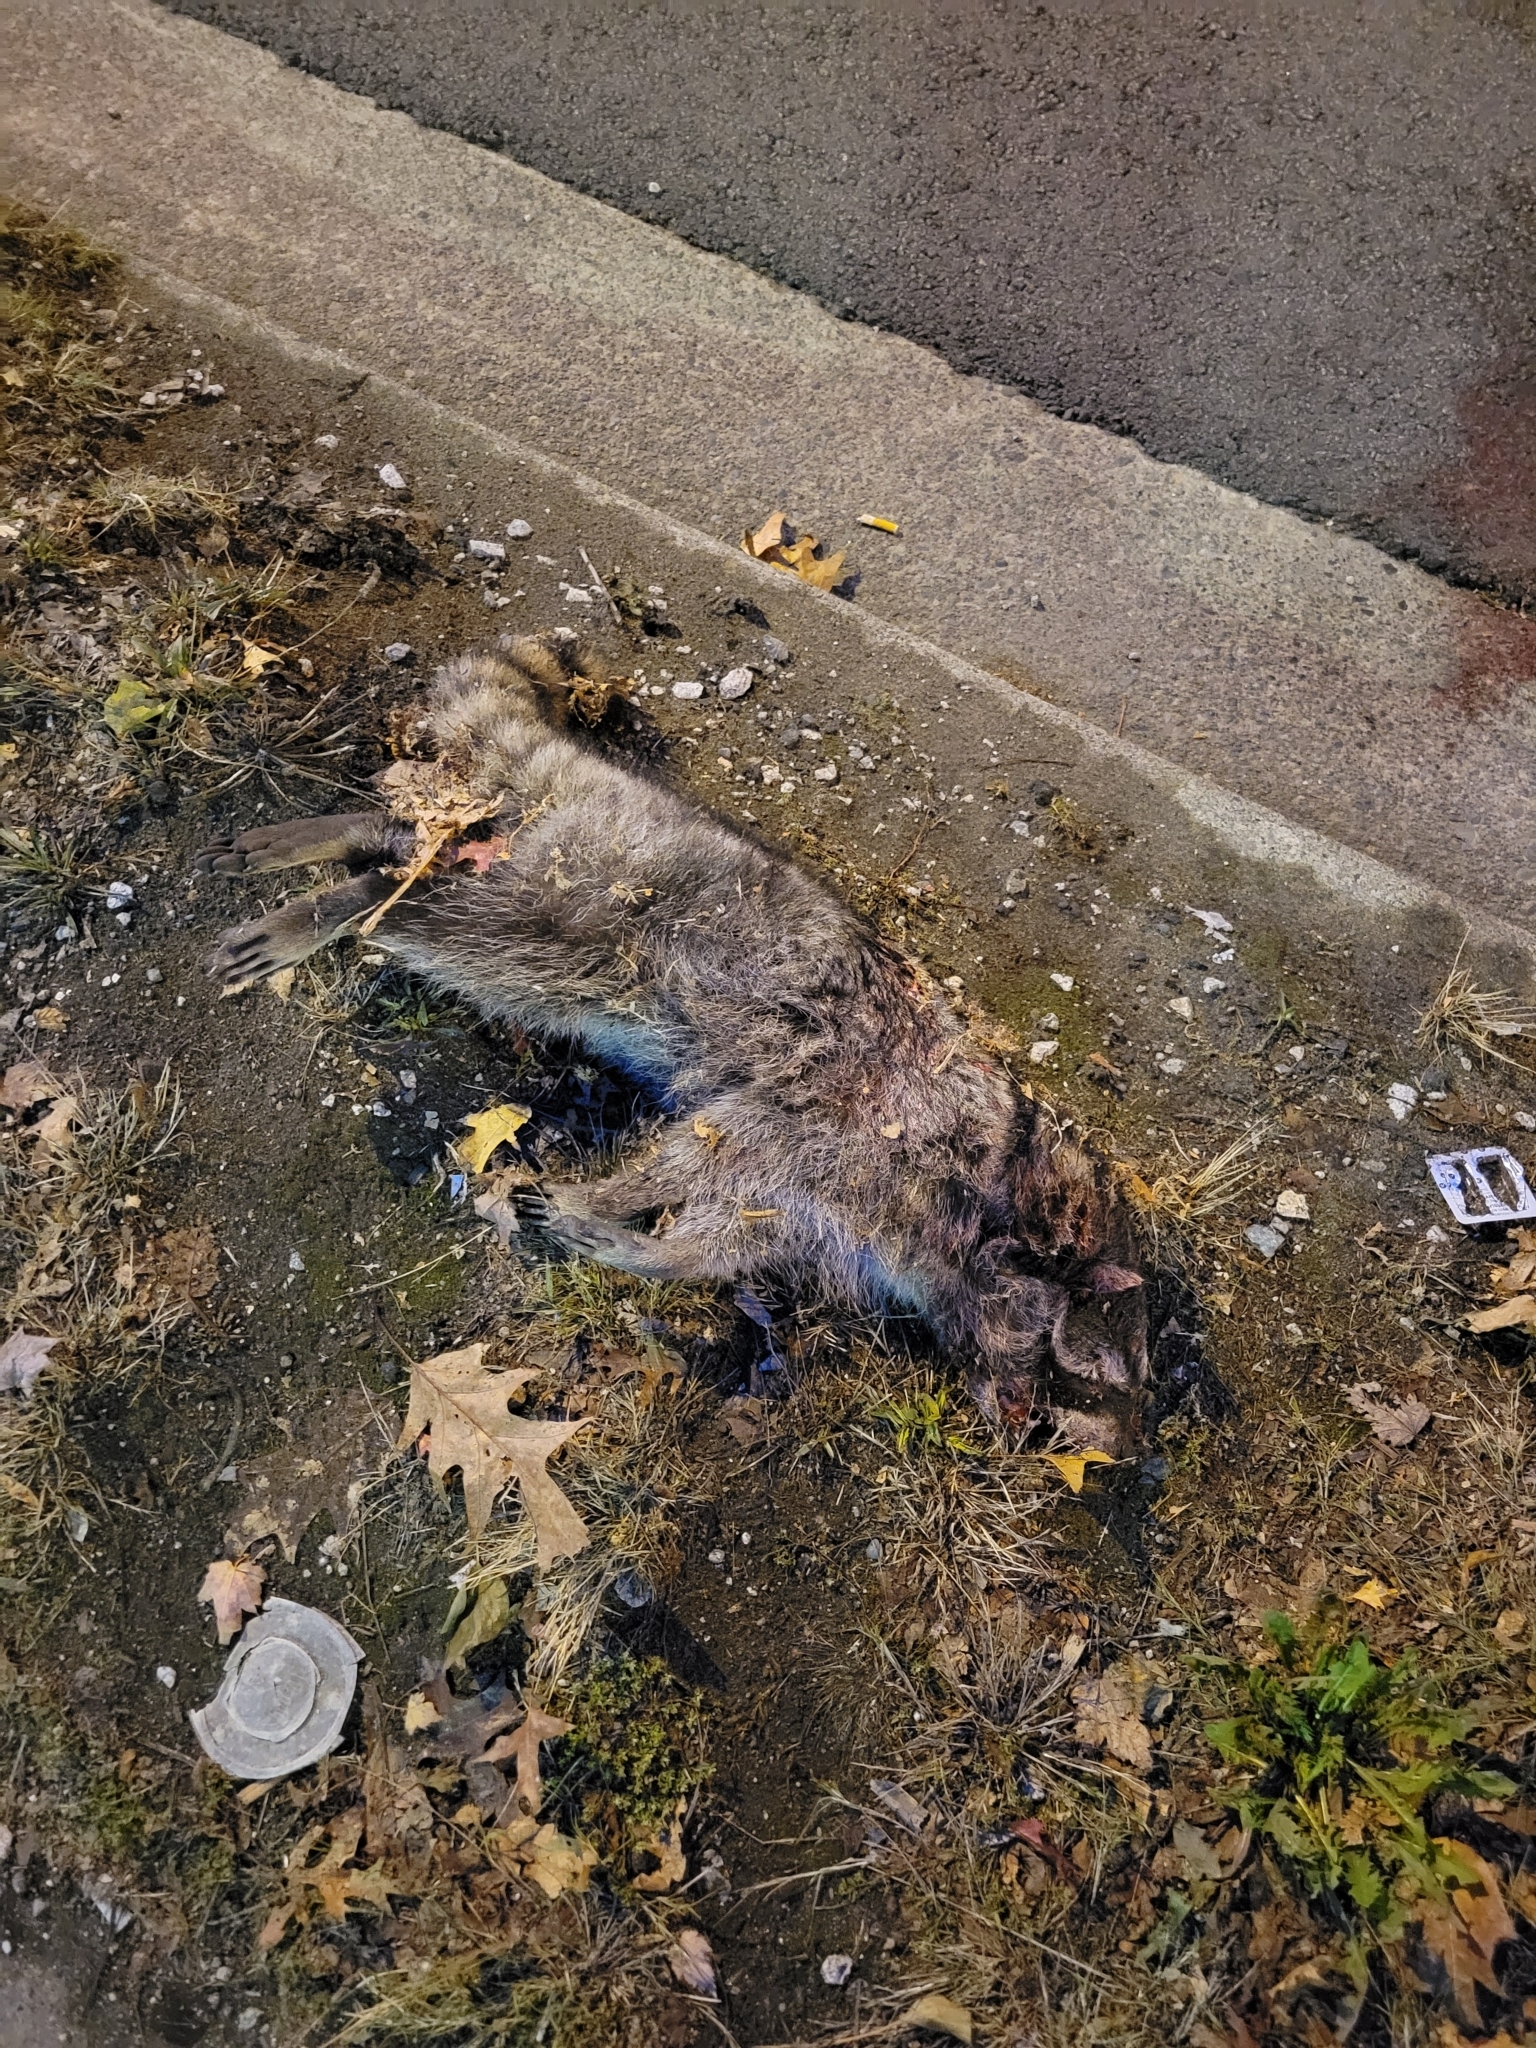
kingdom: Animalia
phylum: Chordata
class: Mammalia
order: Carnivora
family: Procyonidae
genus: Procyon
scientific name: Procyon lotor
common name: Raccoon
